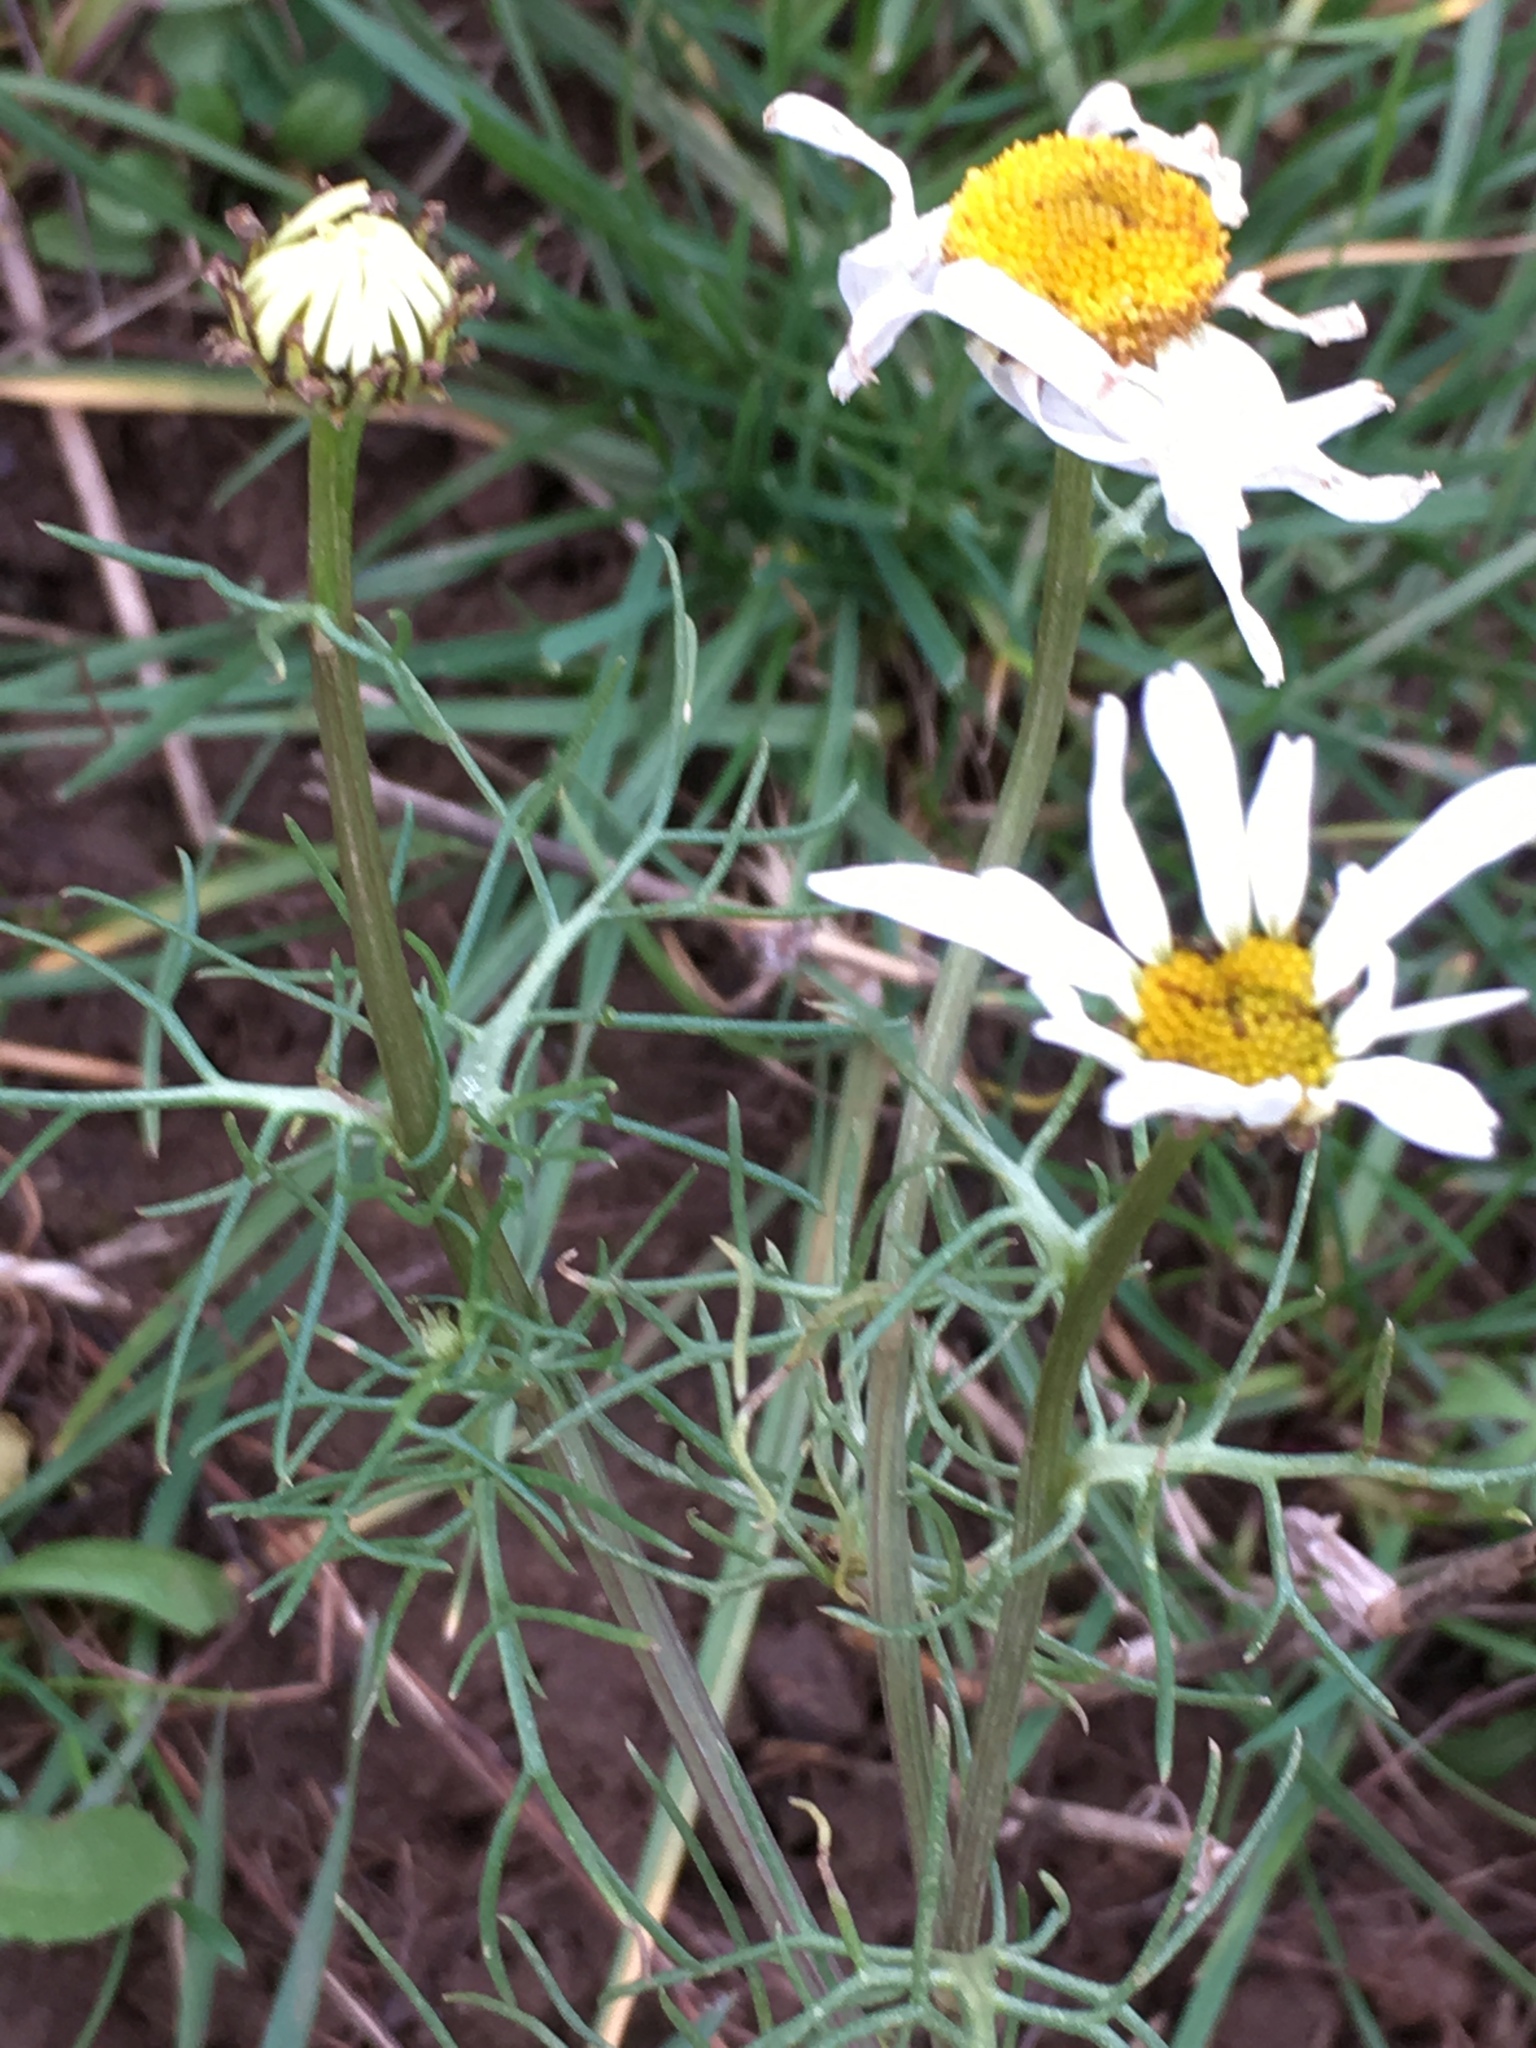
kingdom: Plantae
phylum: Tracheophyta
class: Magnoliopsida
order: Asterales
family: Asteraceae
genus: Tripleurospermum
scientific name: Tripleurospermum inodorum
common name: Scentless mayweed
